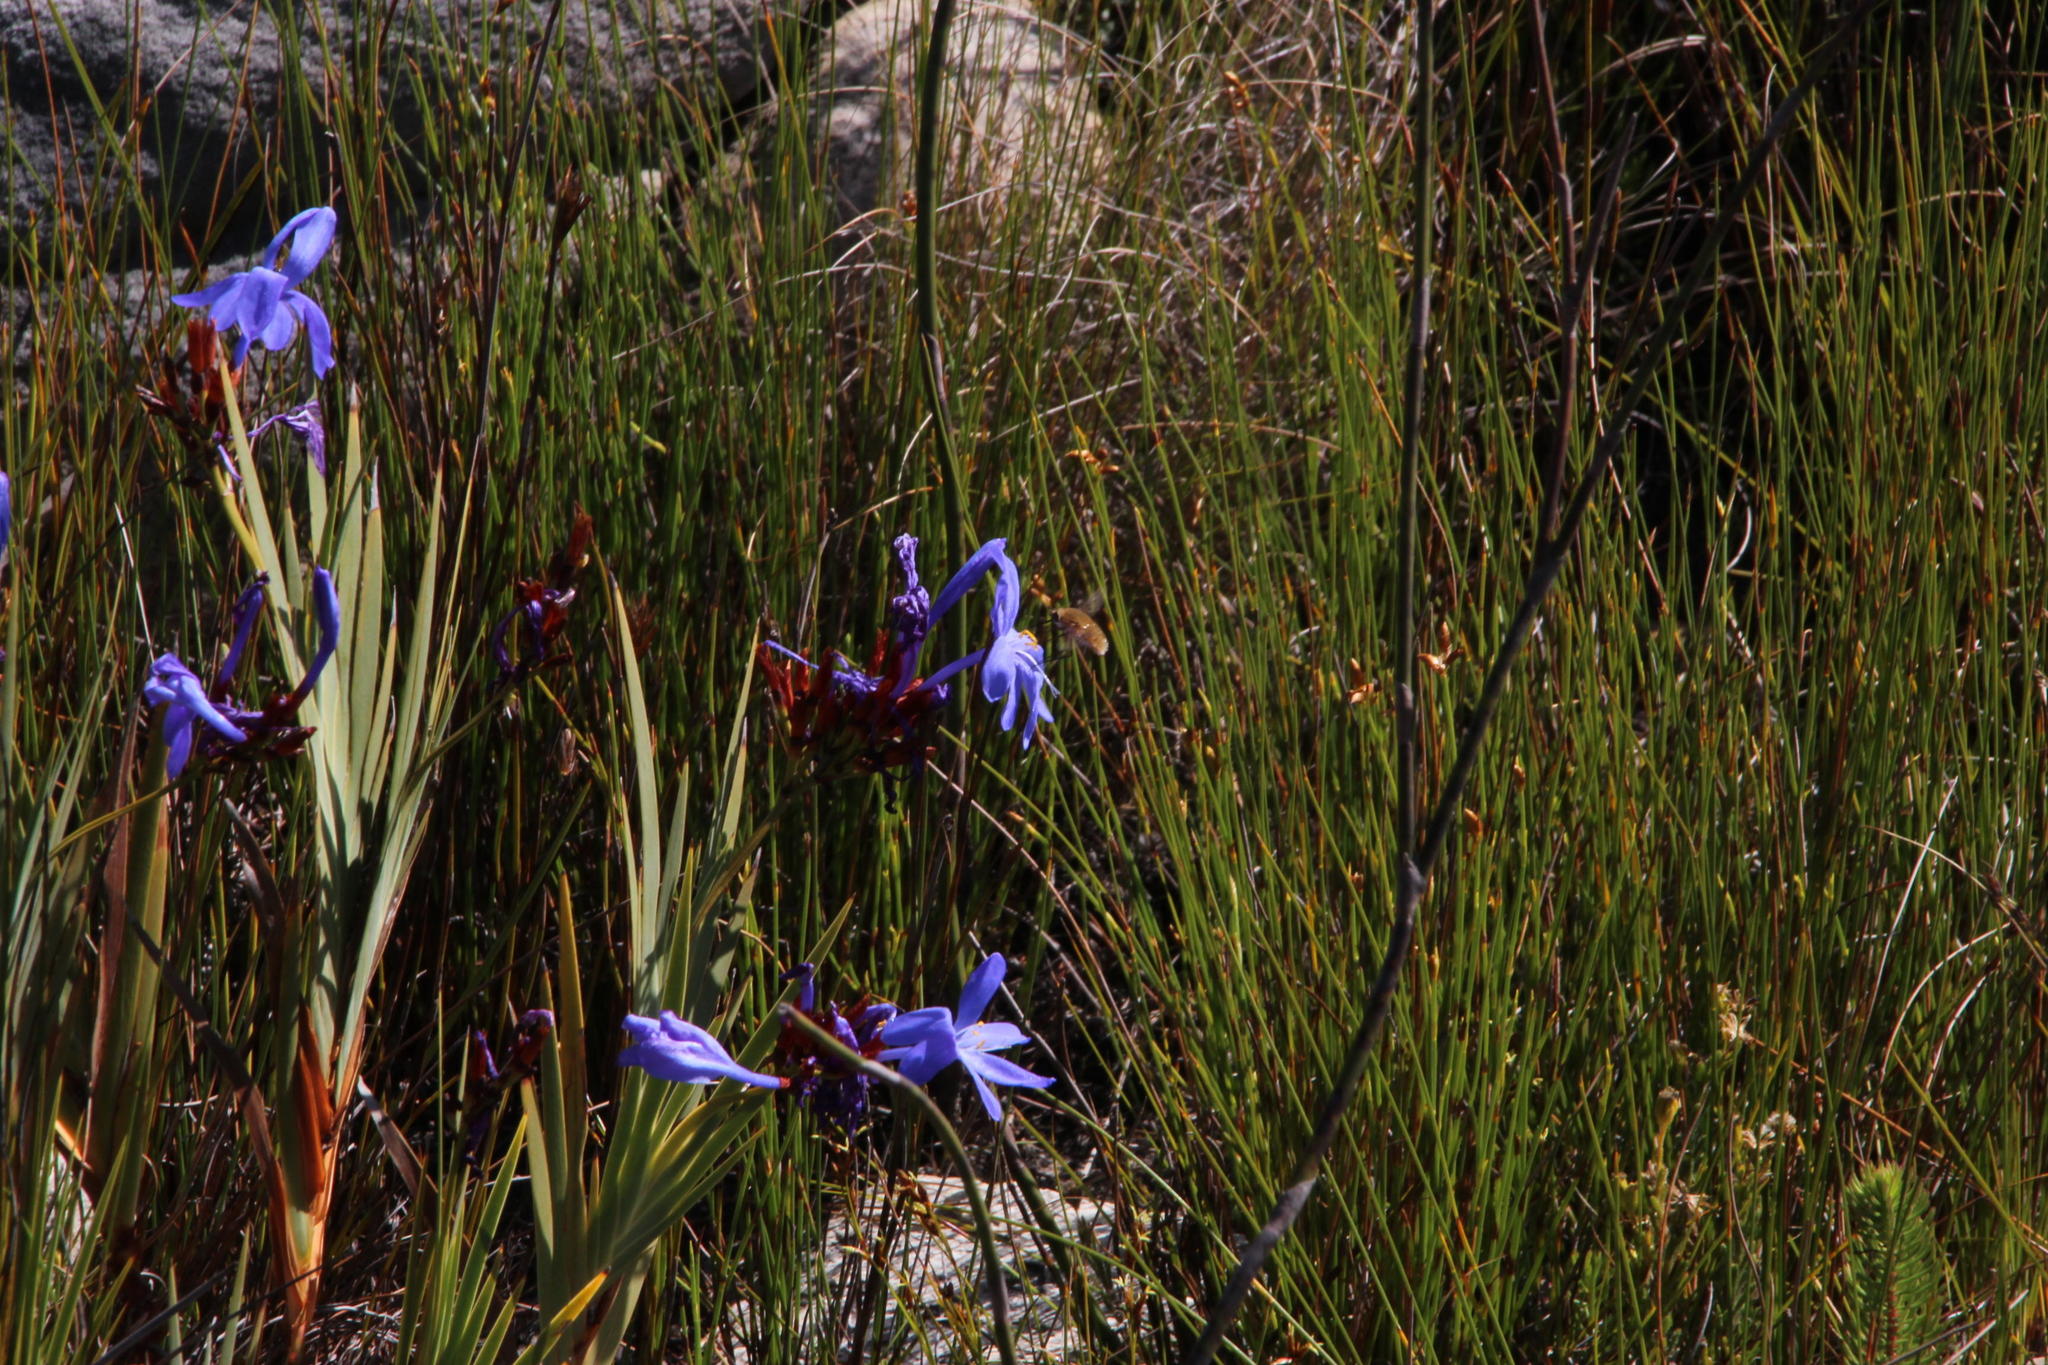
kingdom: Plantae
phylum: Tracheophyta
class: Liliopsida
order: Asparagales
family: Iridaceae
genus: Nivenia
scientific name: Nivenia stokoei
